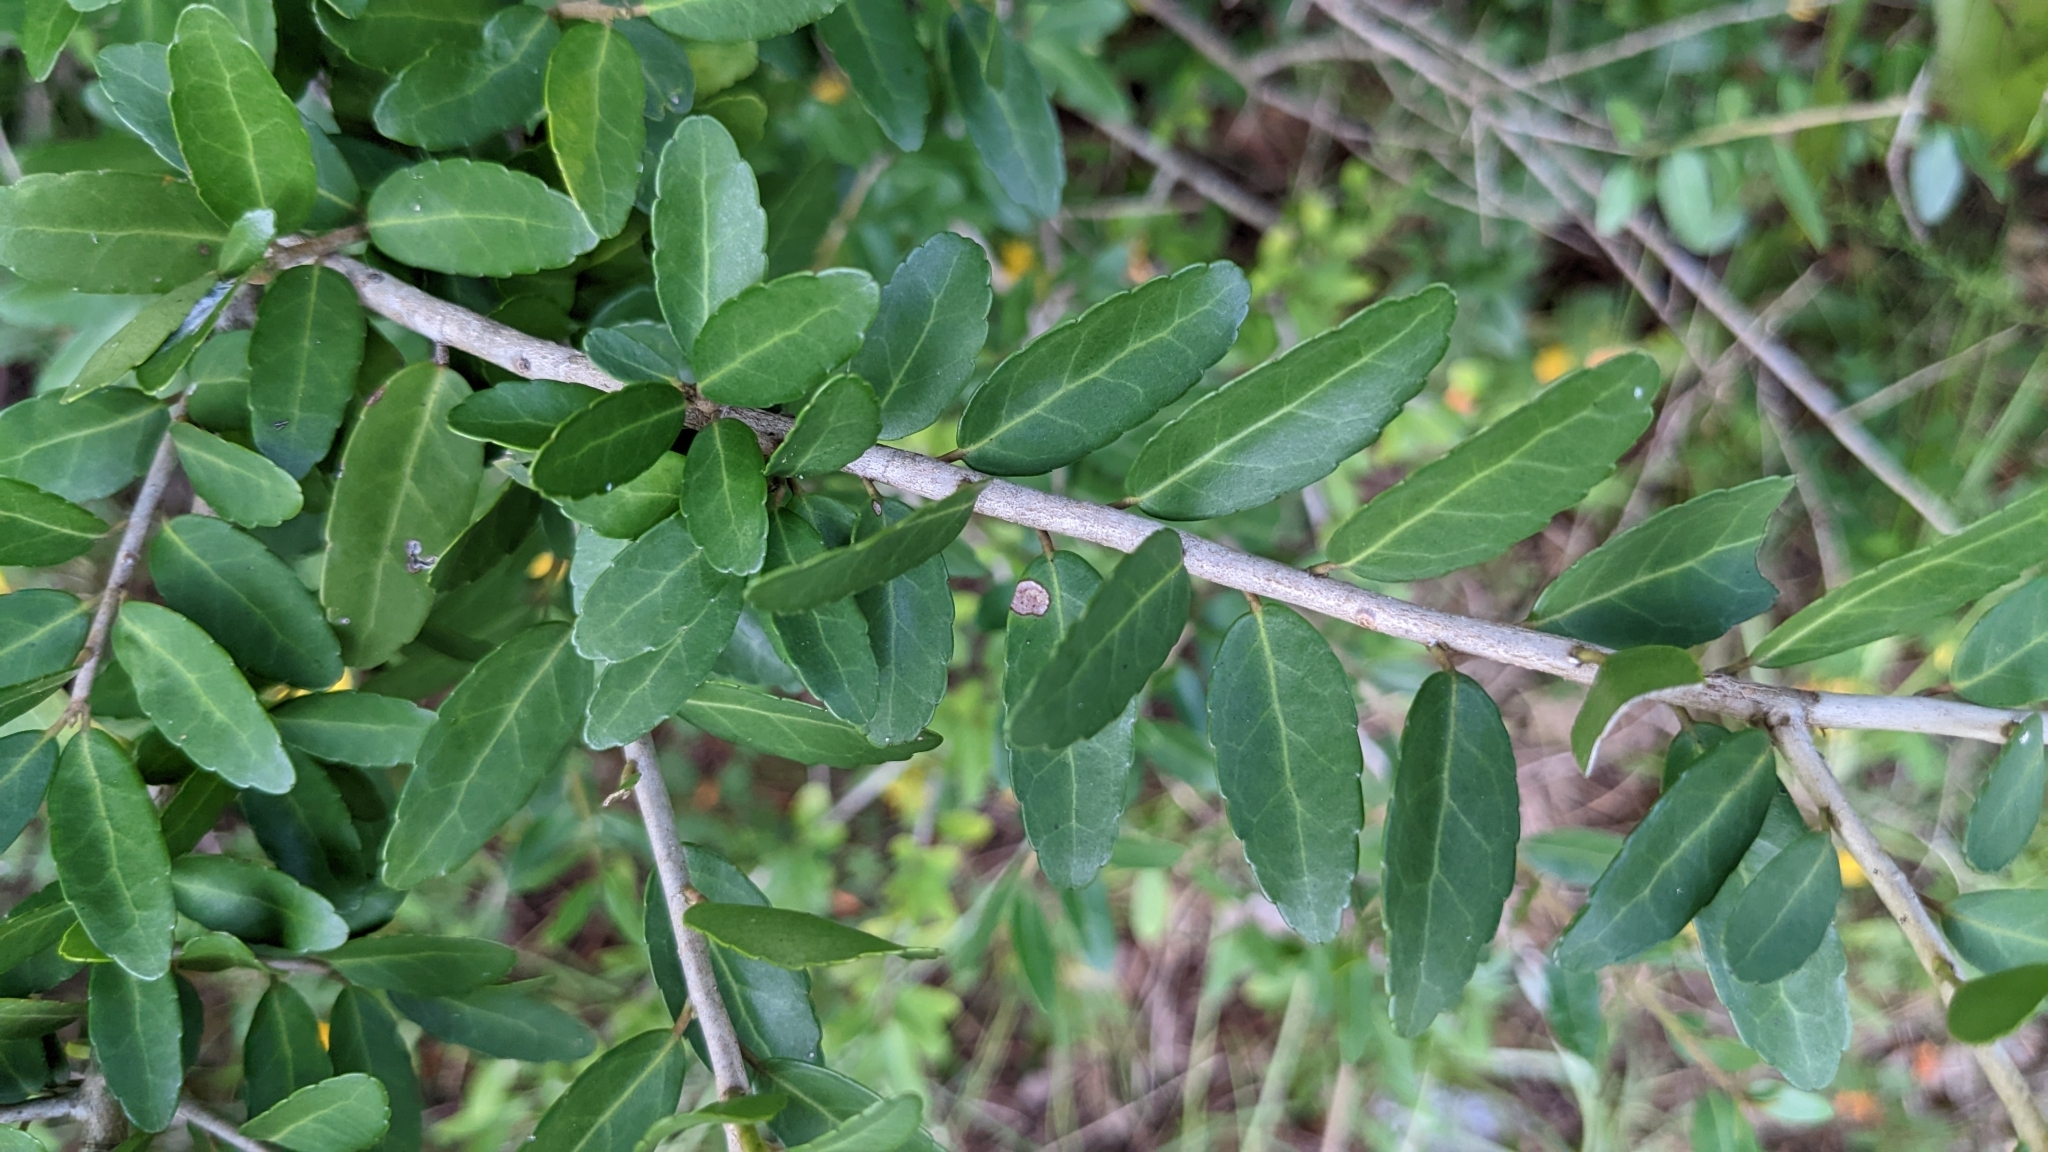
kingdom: Plantae
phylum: Tracheophyta
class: Magnoliopsida
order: Aquifoliales
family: Aquifoliaceae
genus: Ilex
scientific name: Ilex vomitoria
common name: Yaupon holly
